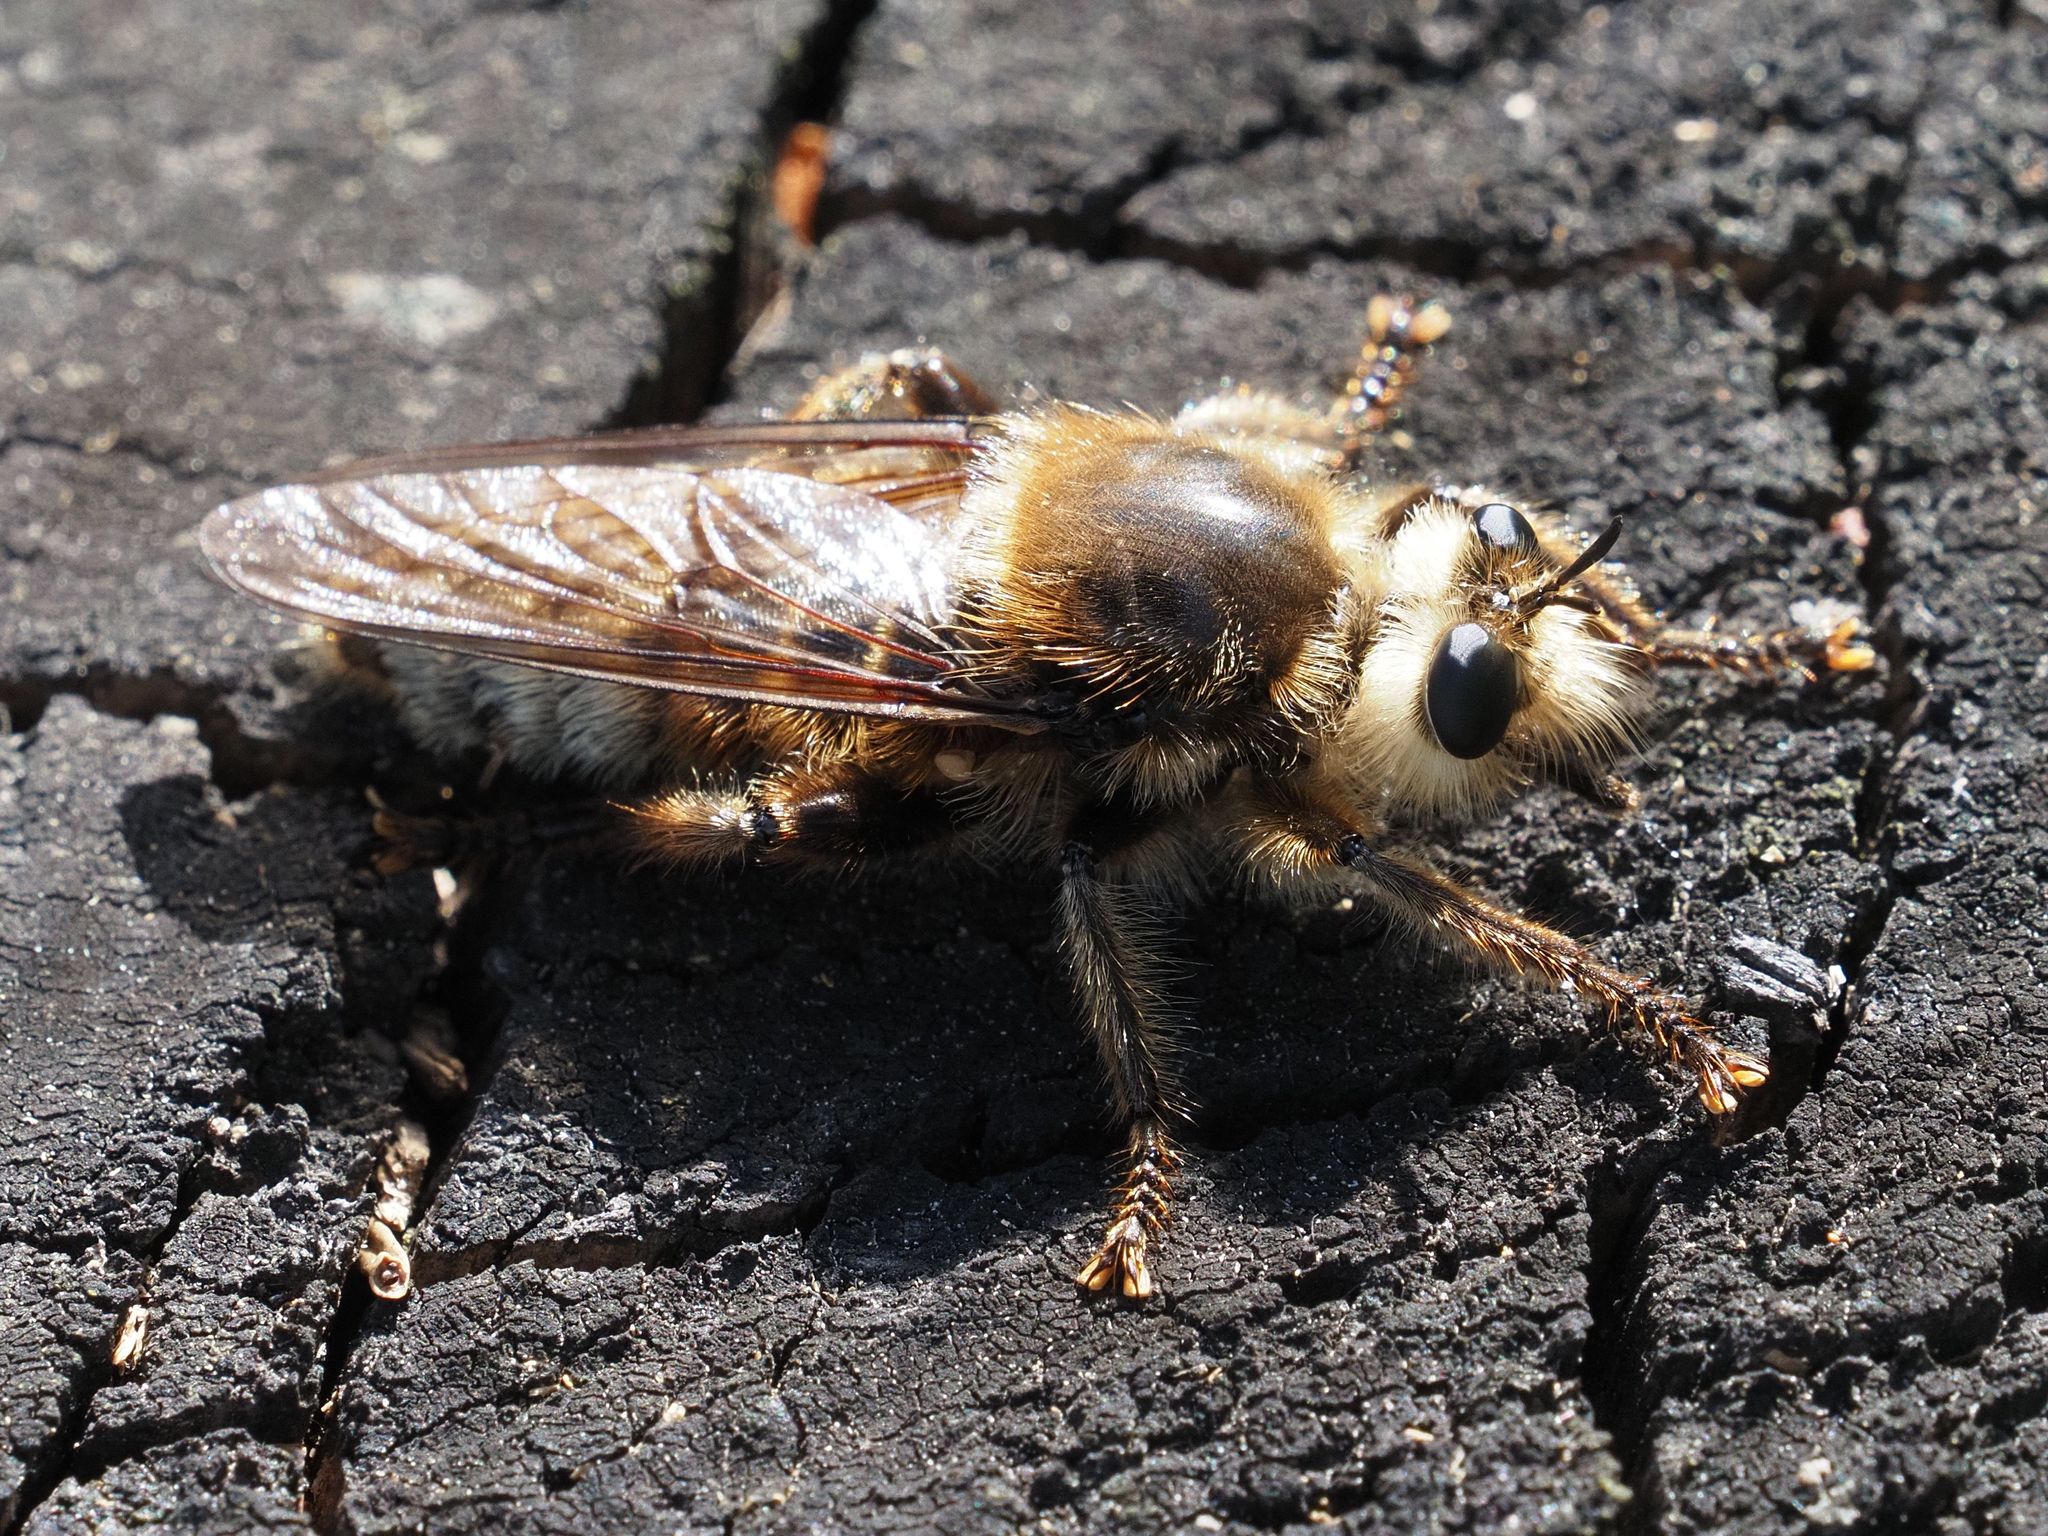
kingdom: Animalia
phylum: Arthropoda
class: Insecta
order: Diptera
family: Asilidae
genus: Laphria
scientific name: Laphria gibbosa
